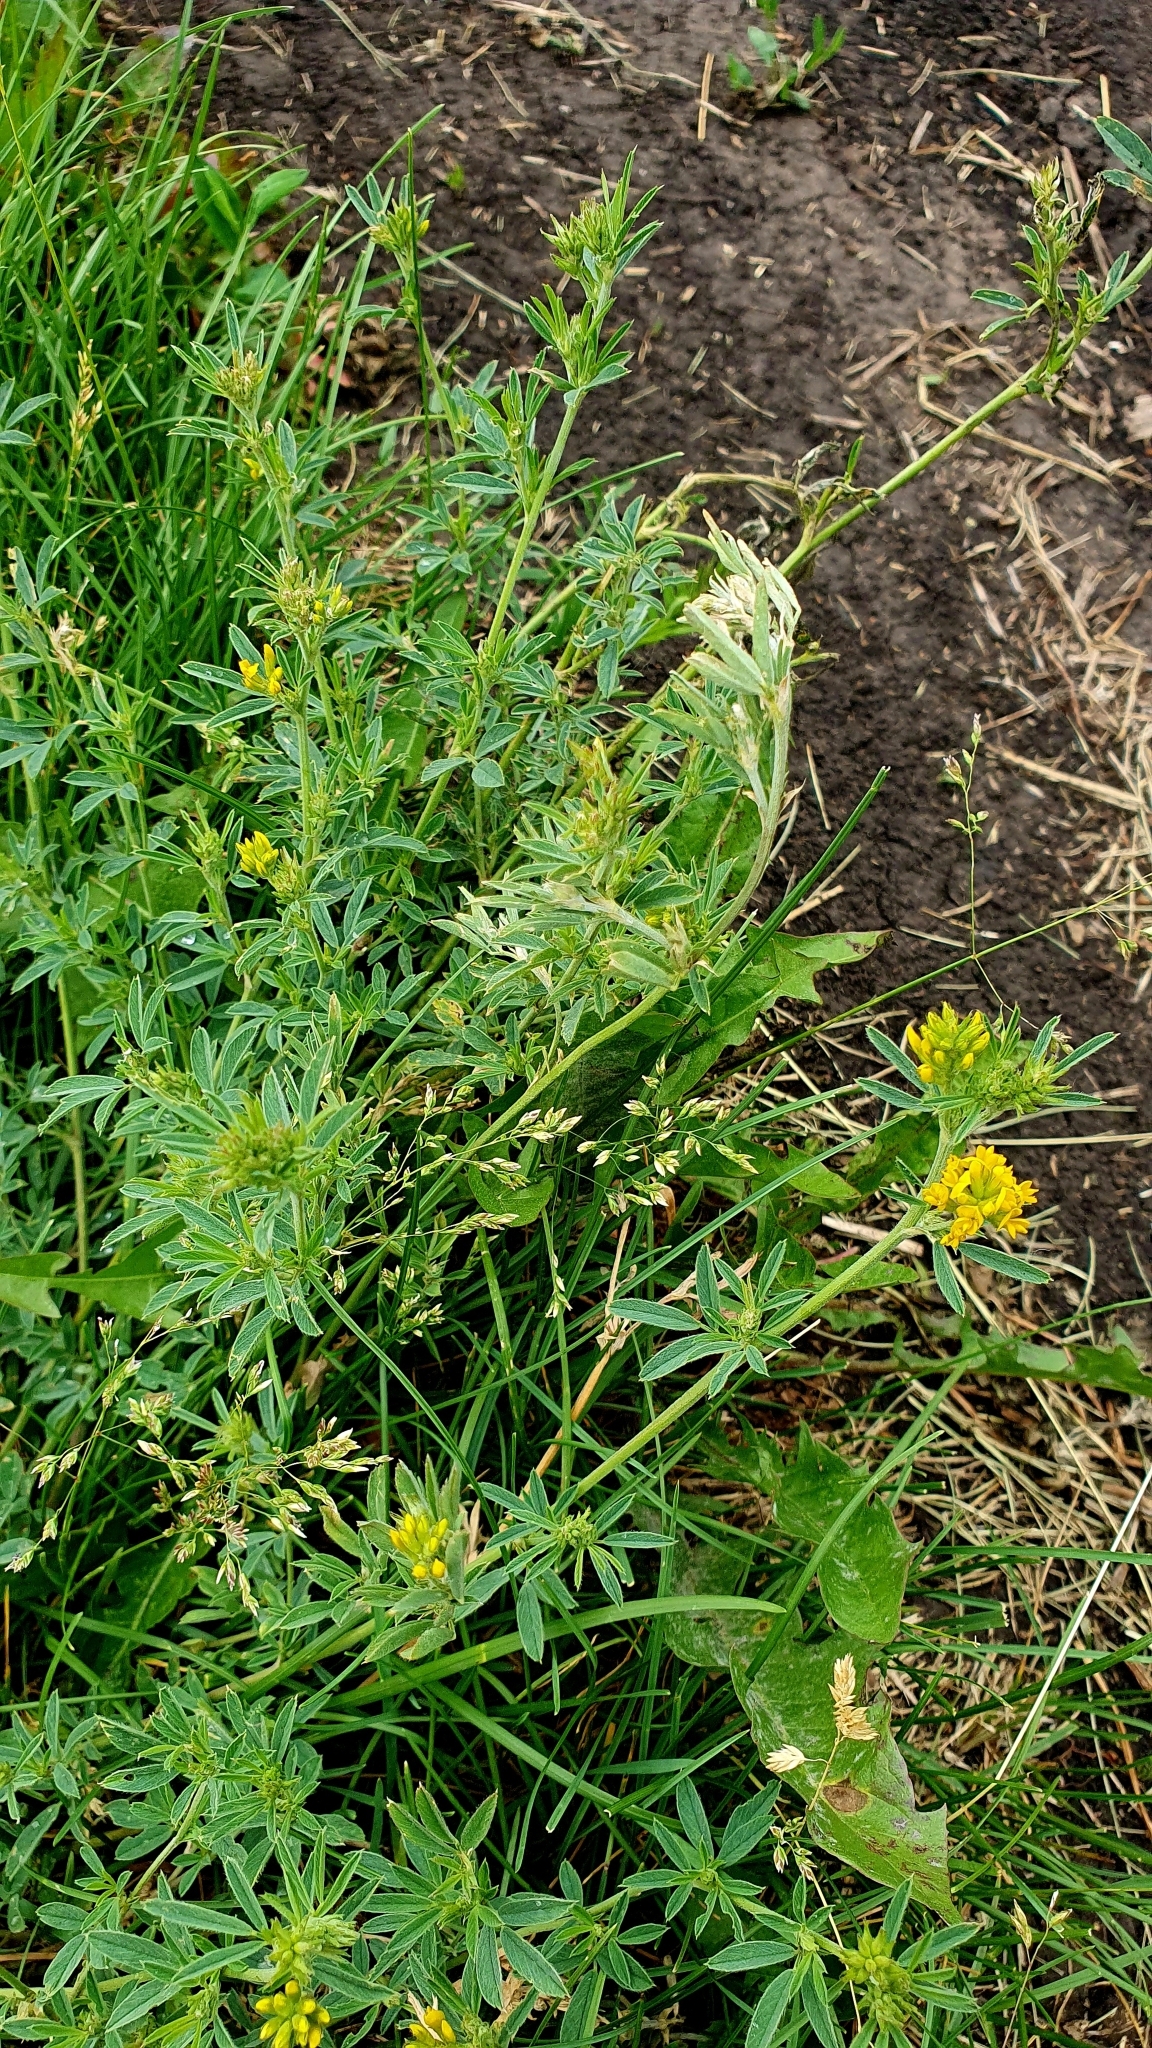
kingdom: Plantae
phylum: Tracheophyta
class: Magnoliopsida
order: Fabales
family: Fabaceae
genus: Medicago
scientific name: Medicago falcata
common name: Sickle medick
